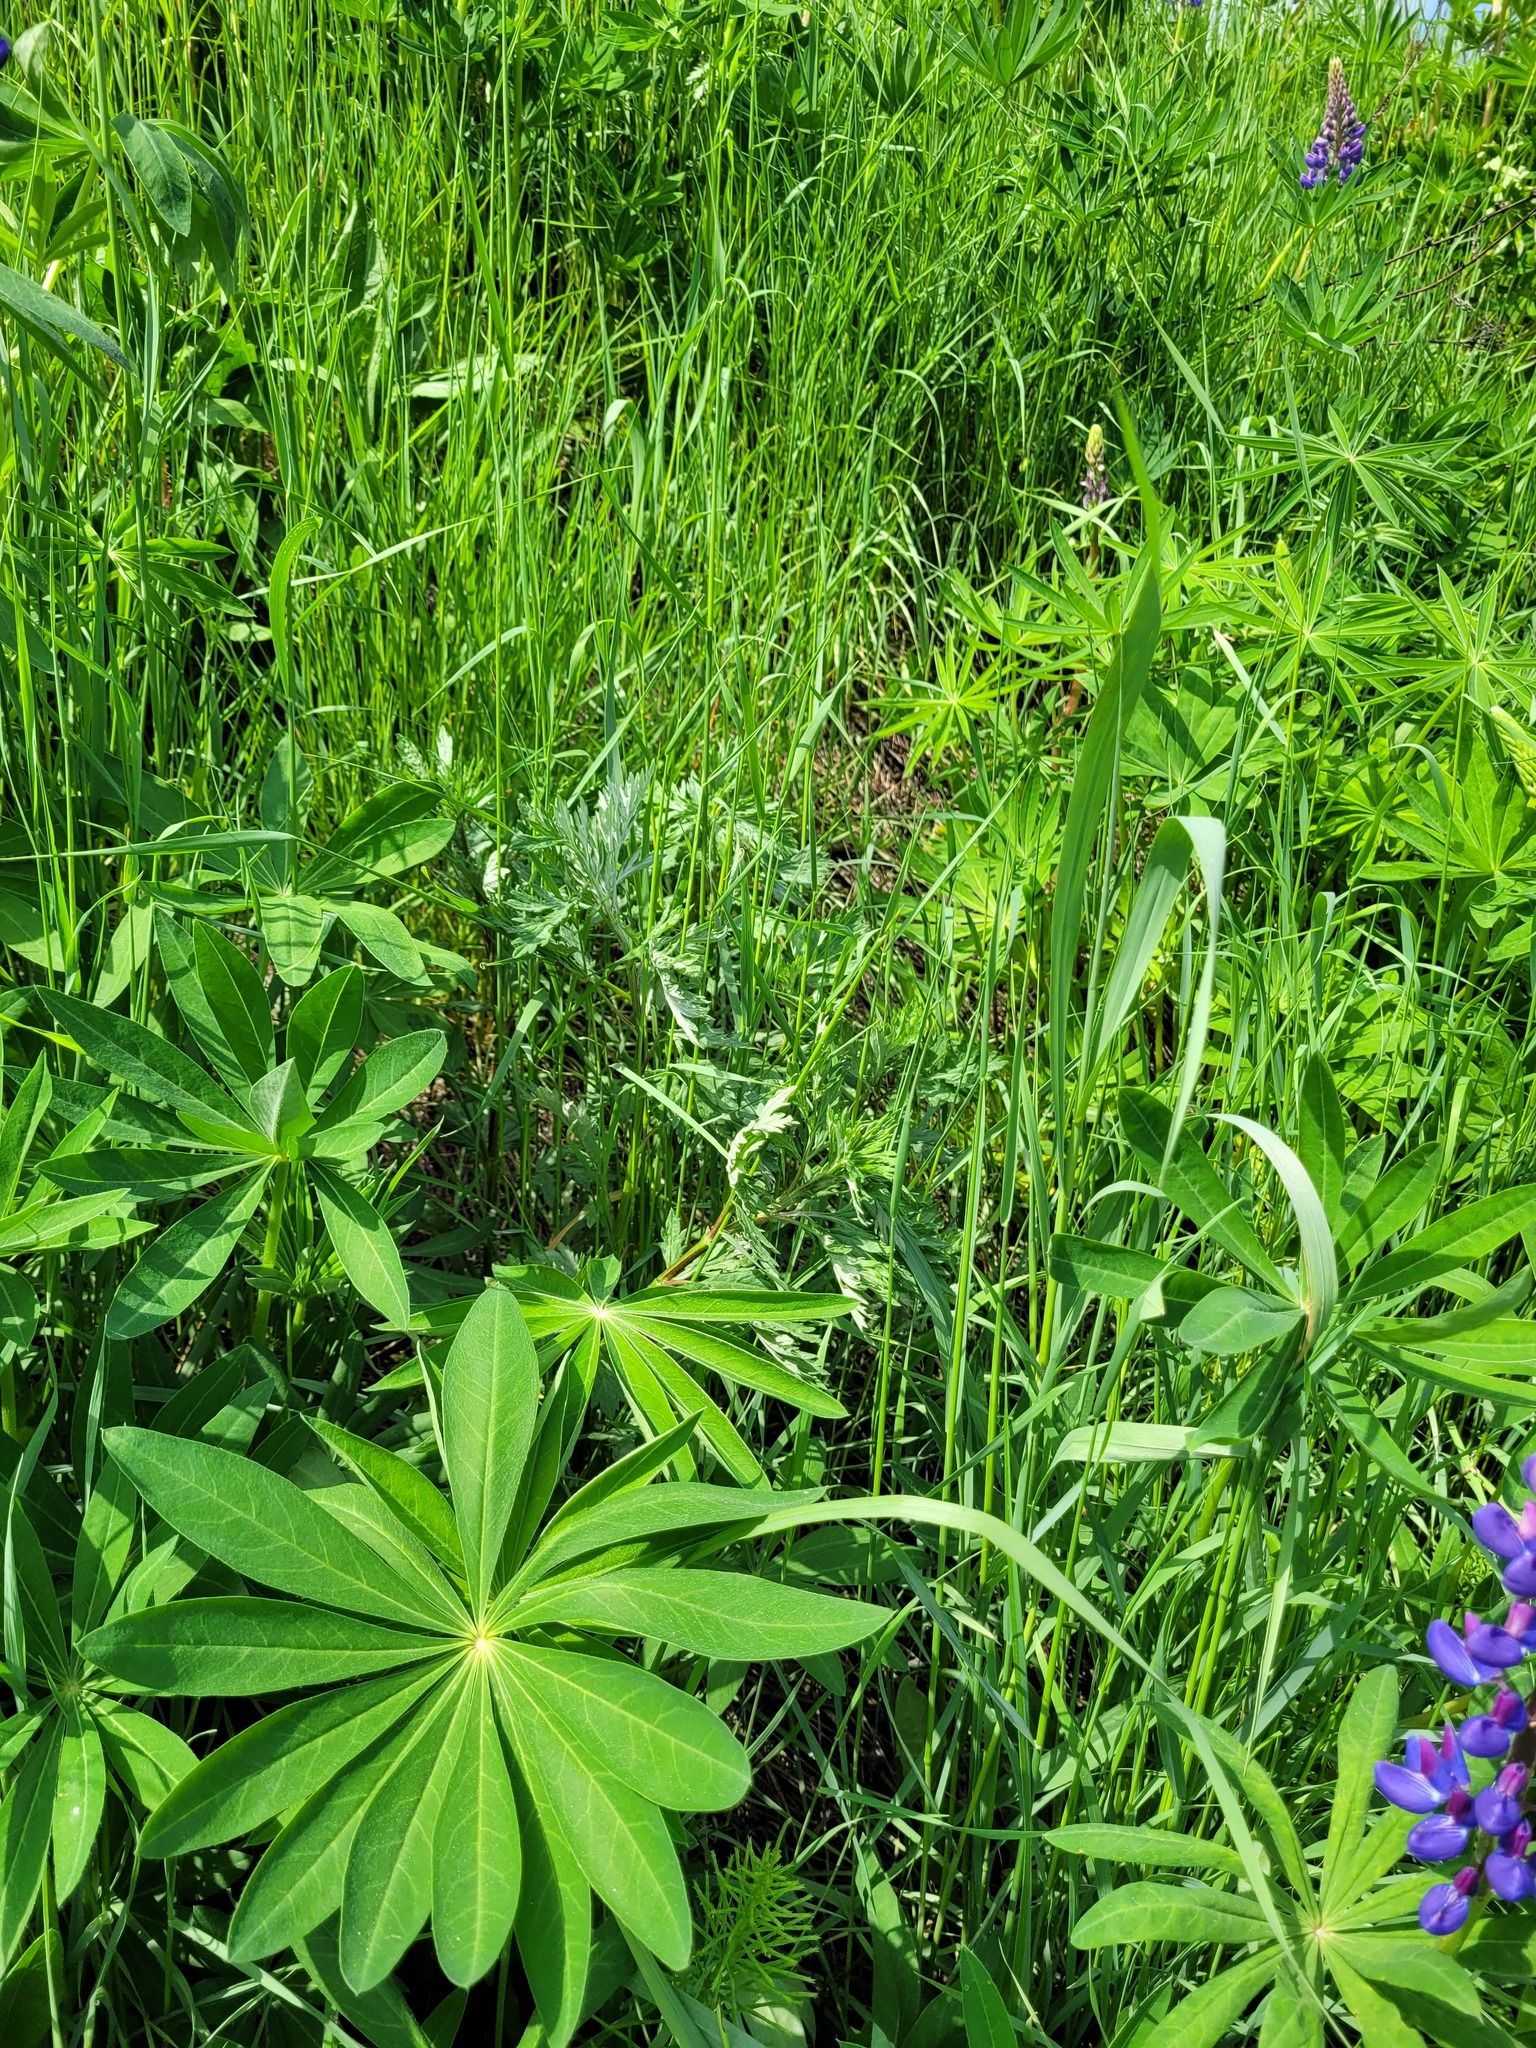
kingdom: Plantae
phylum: Tracheophyta
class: Magnoliopsida
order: Asterales
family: Asteraceae
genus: Artemisia
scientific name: Artemisia vulgaris
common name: Mugwort
